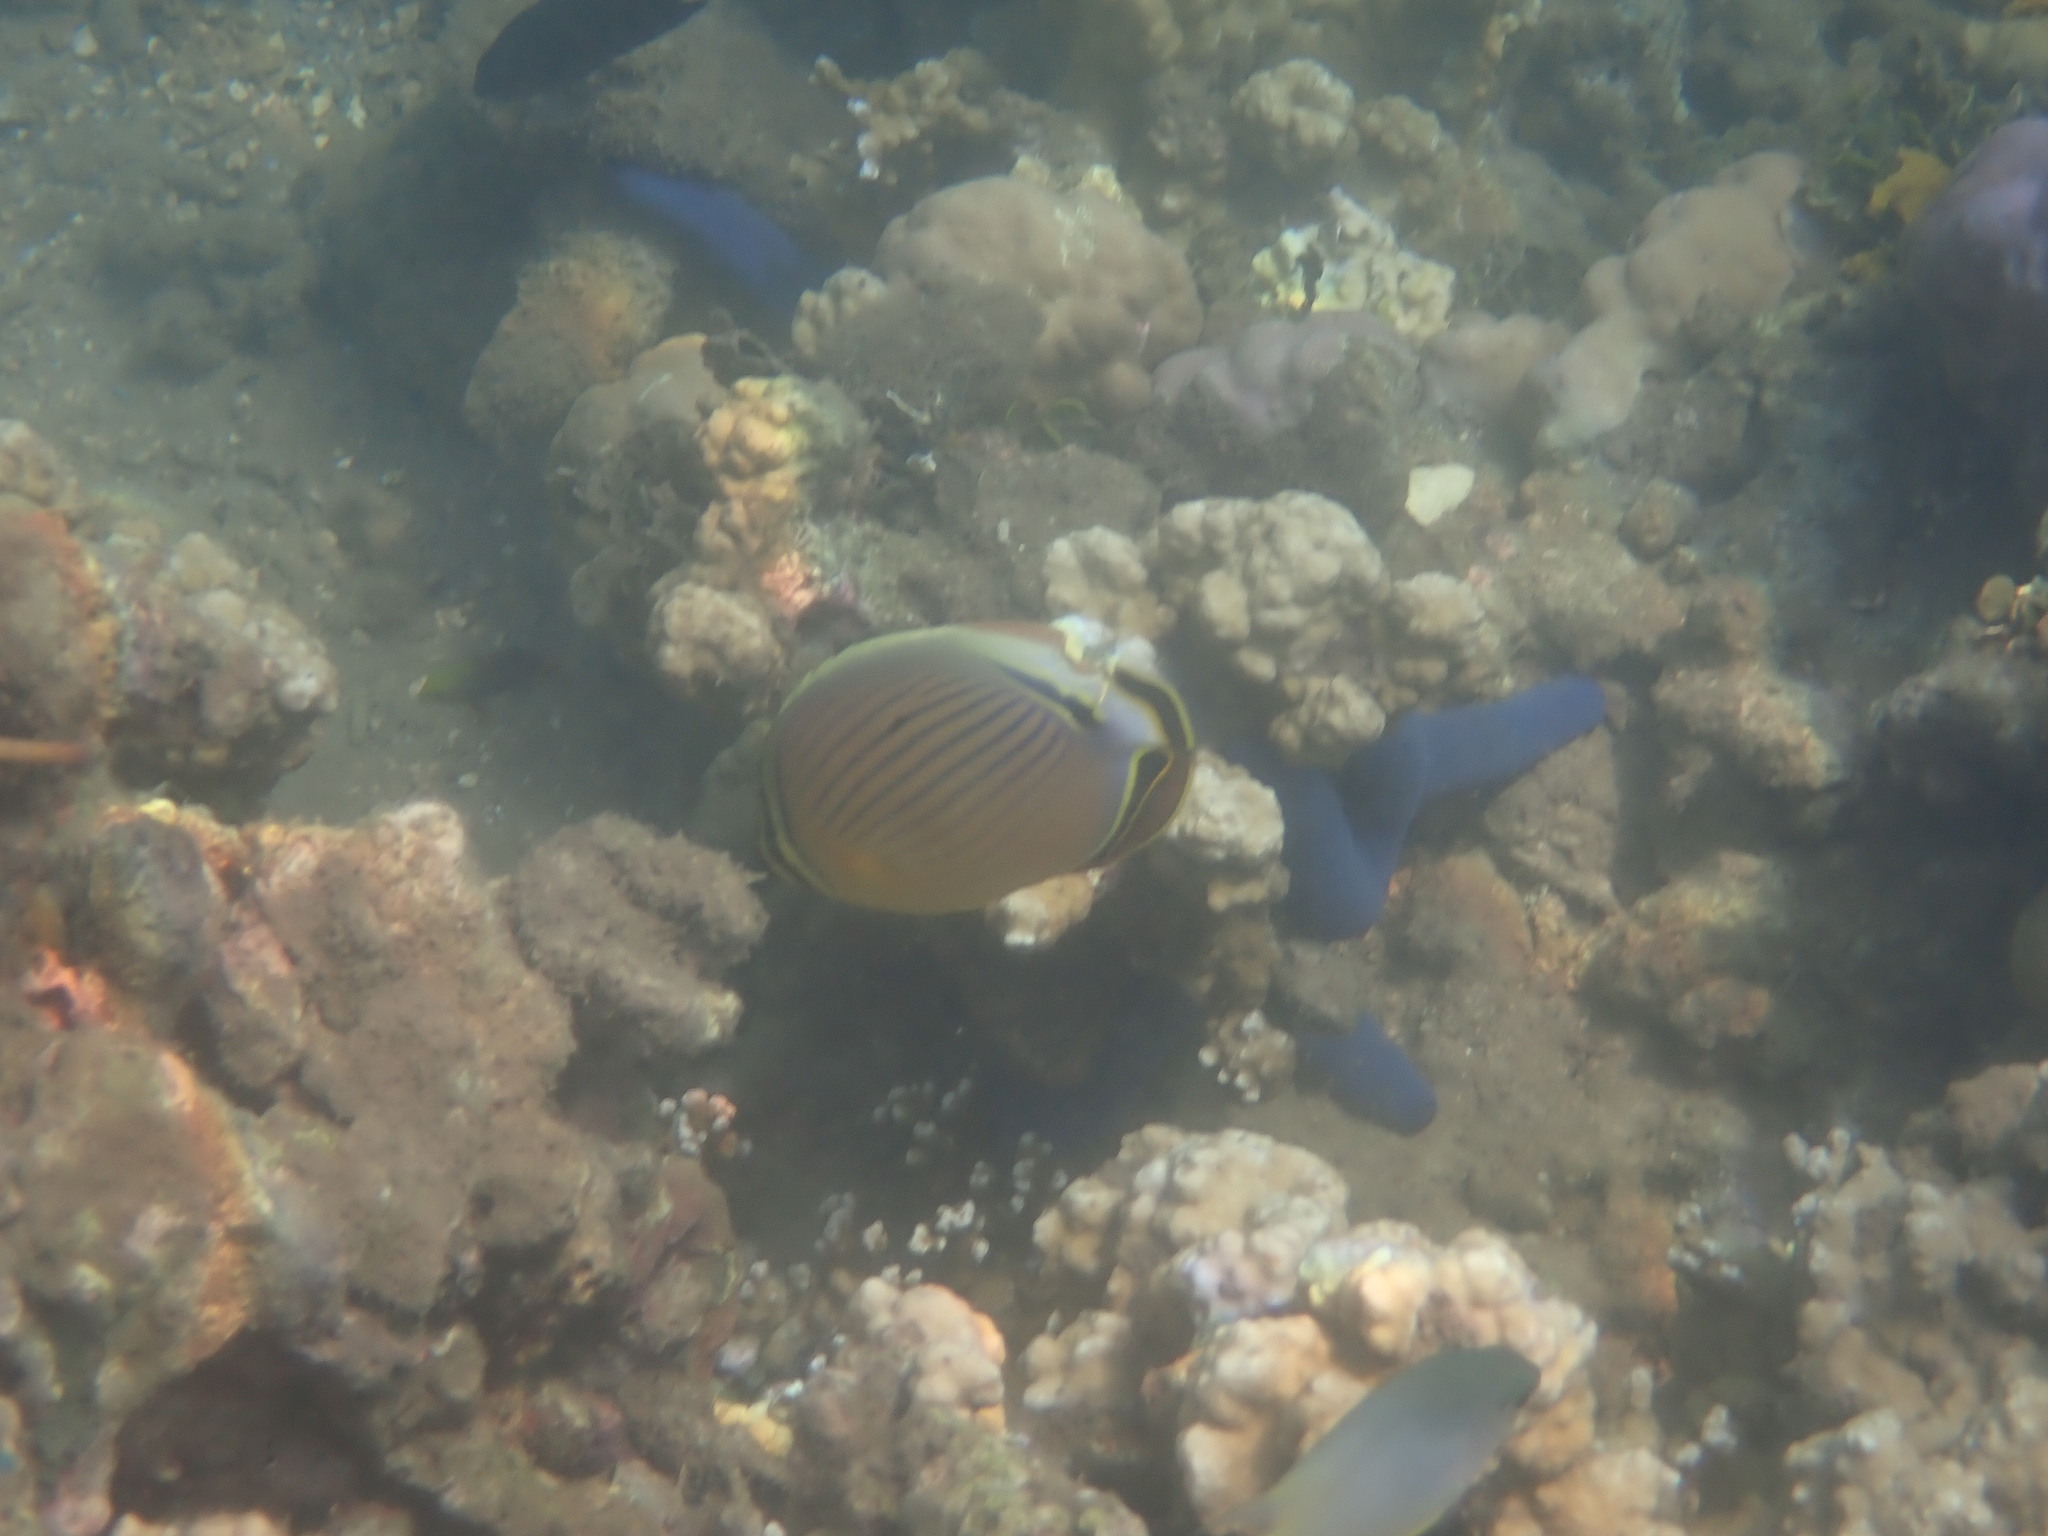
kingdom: Animalia
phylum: Chordata
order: Perciformes
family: Chaetodontidae
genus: Chaetodon
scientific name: Chaetodon lunulatus
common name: Redfin butterflyfish
